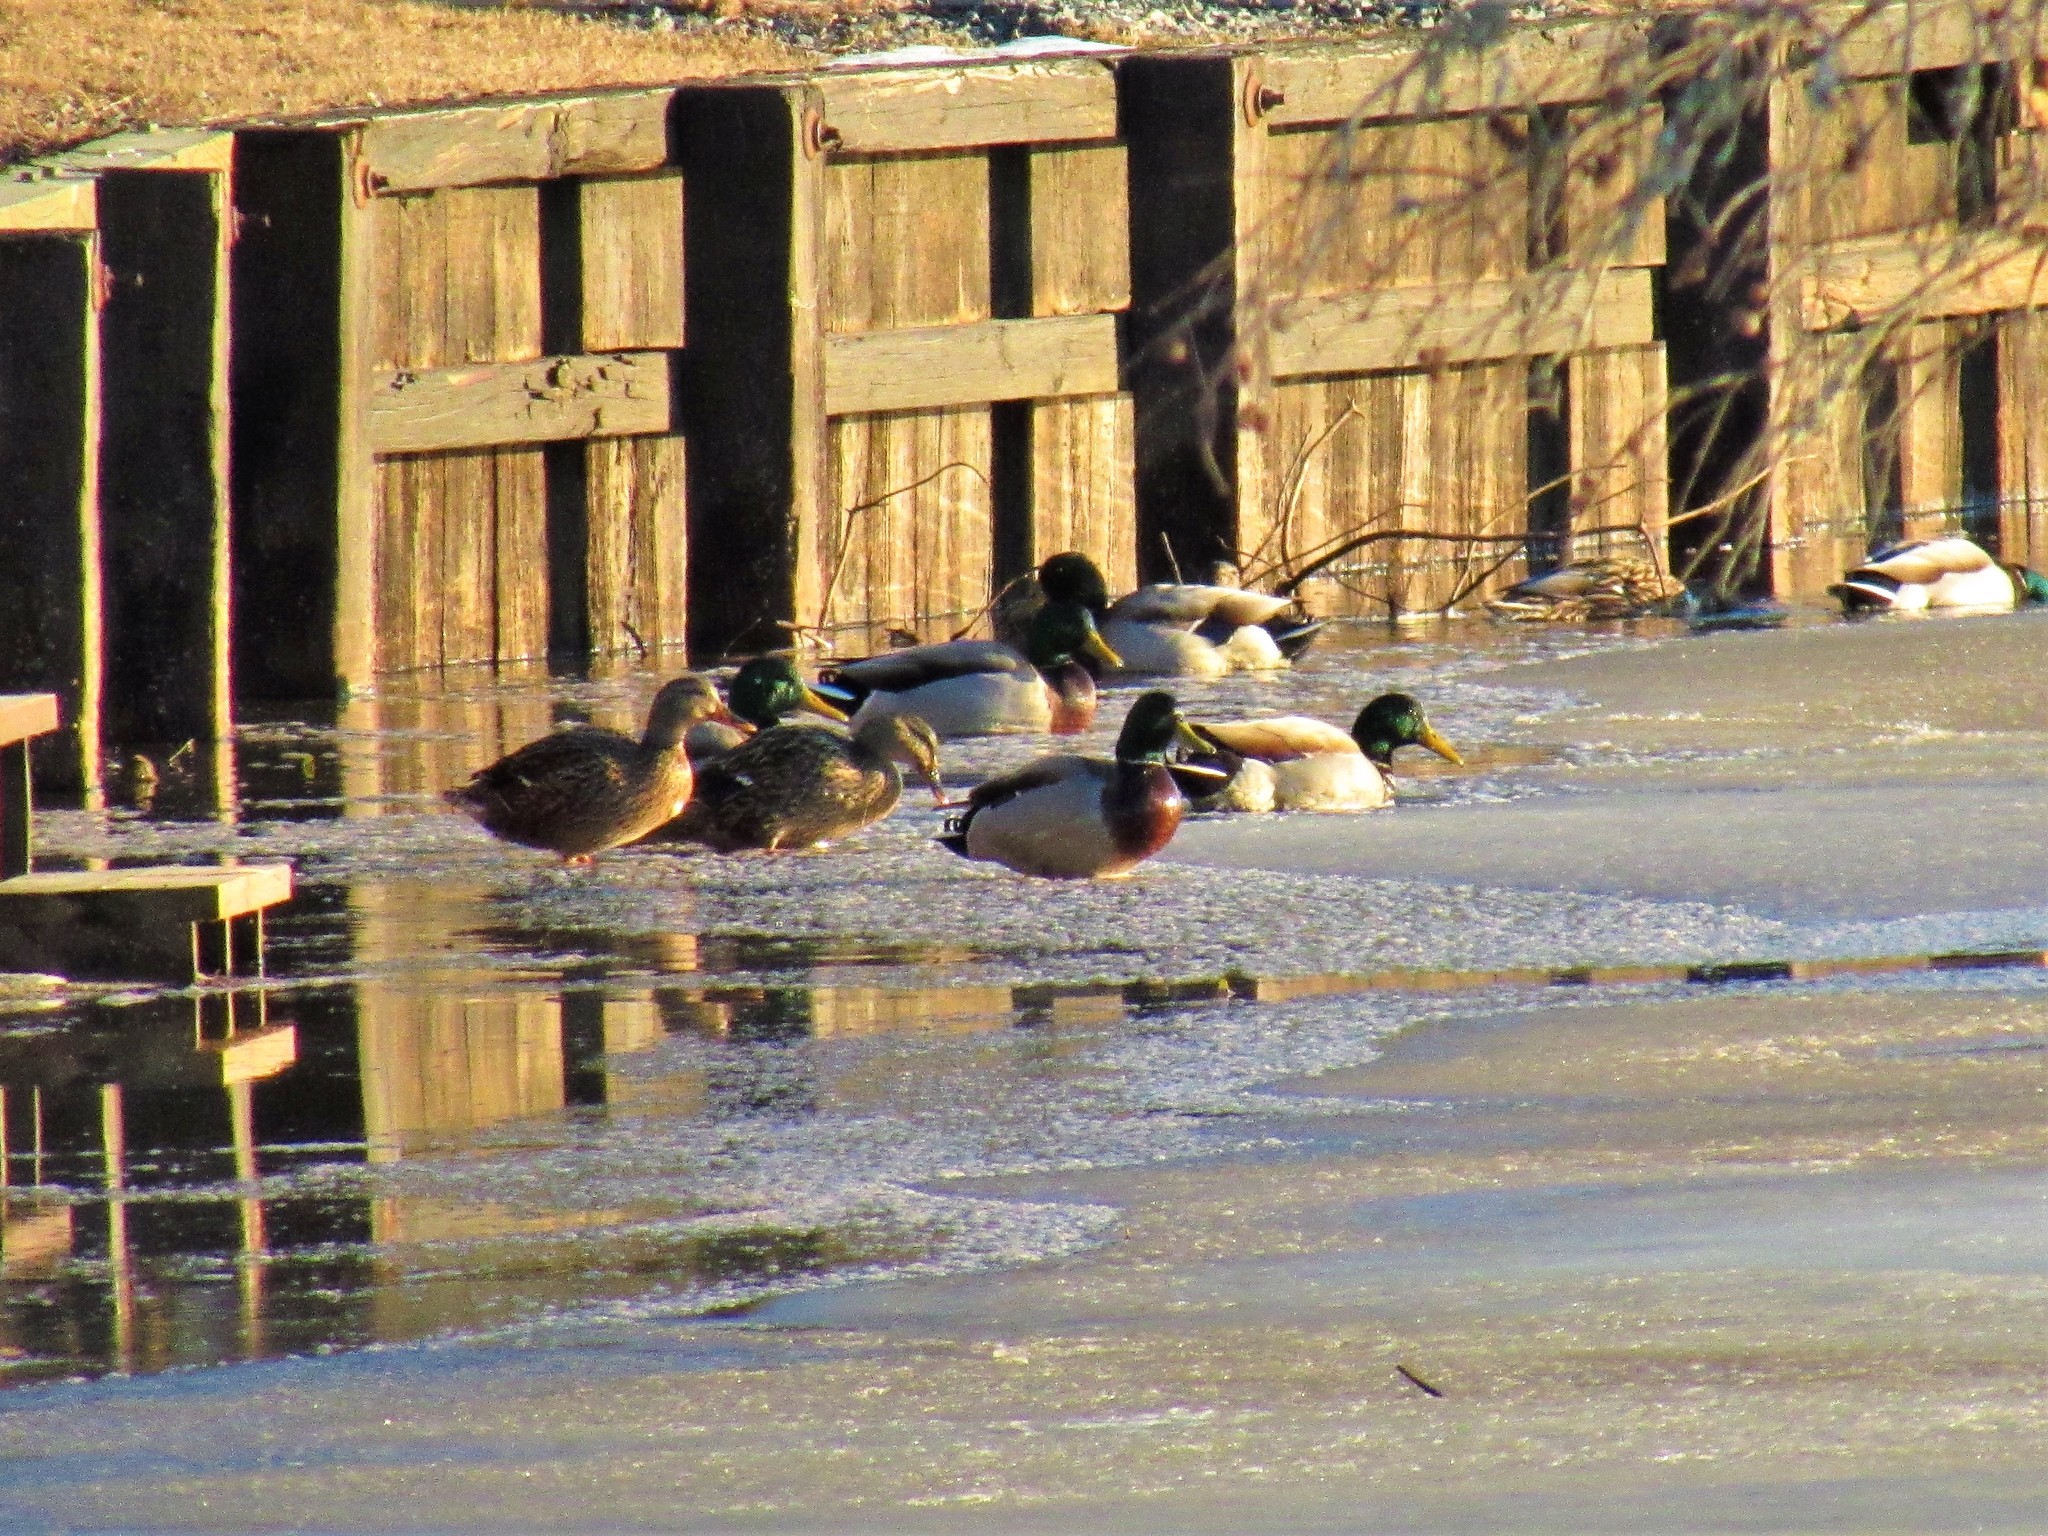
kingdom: Animalia
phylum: Chordata
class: Aves
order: Anseriformes
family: Anatidae
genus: Anas
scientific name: Anas platyrhynchos
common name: Mallard
